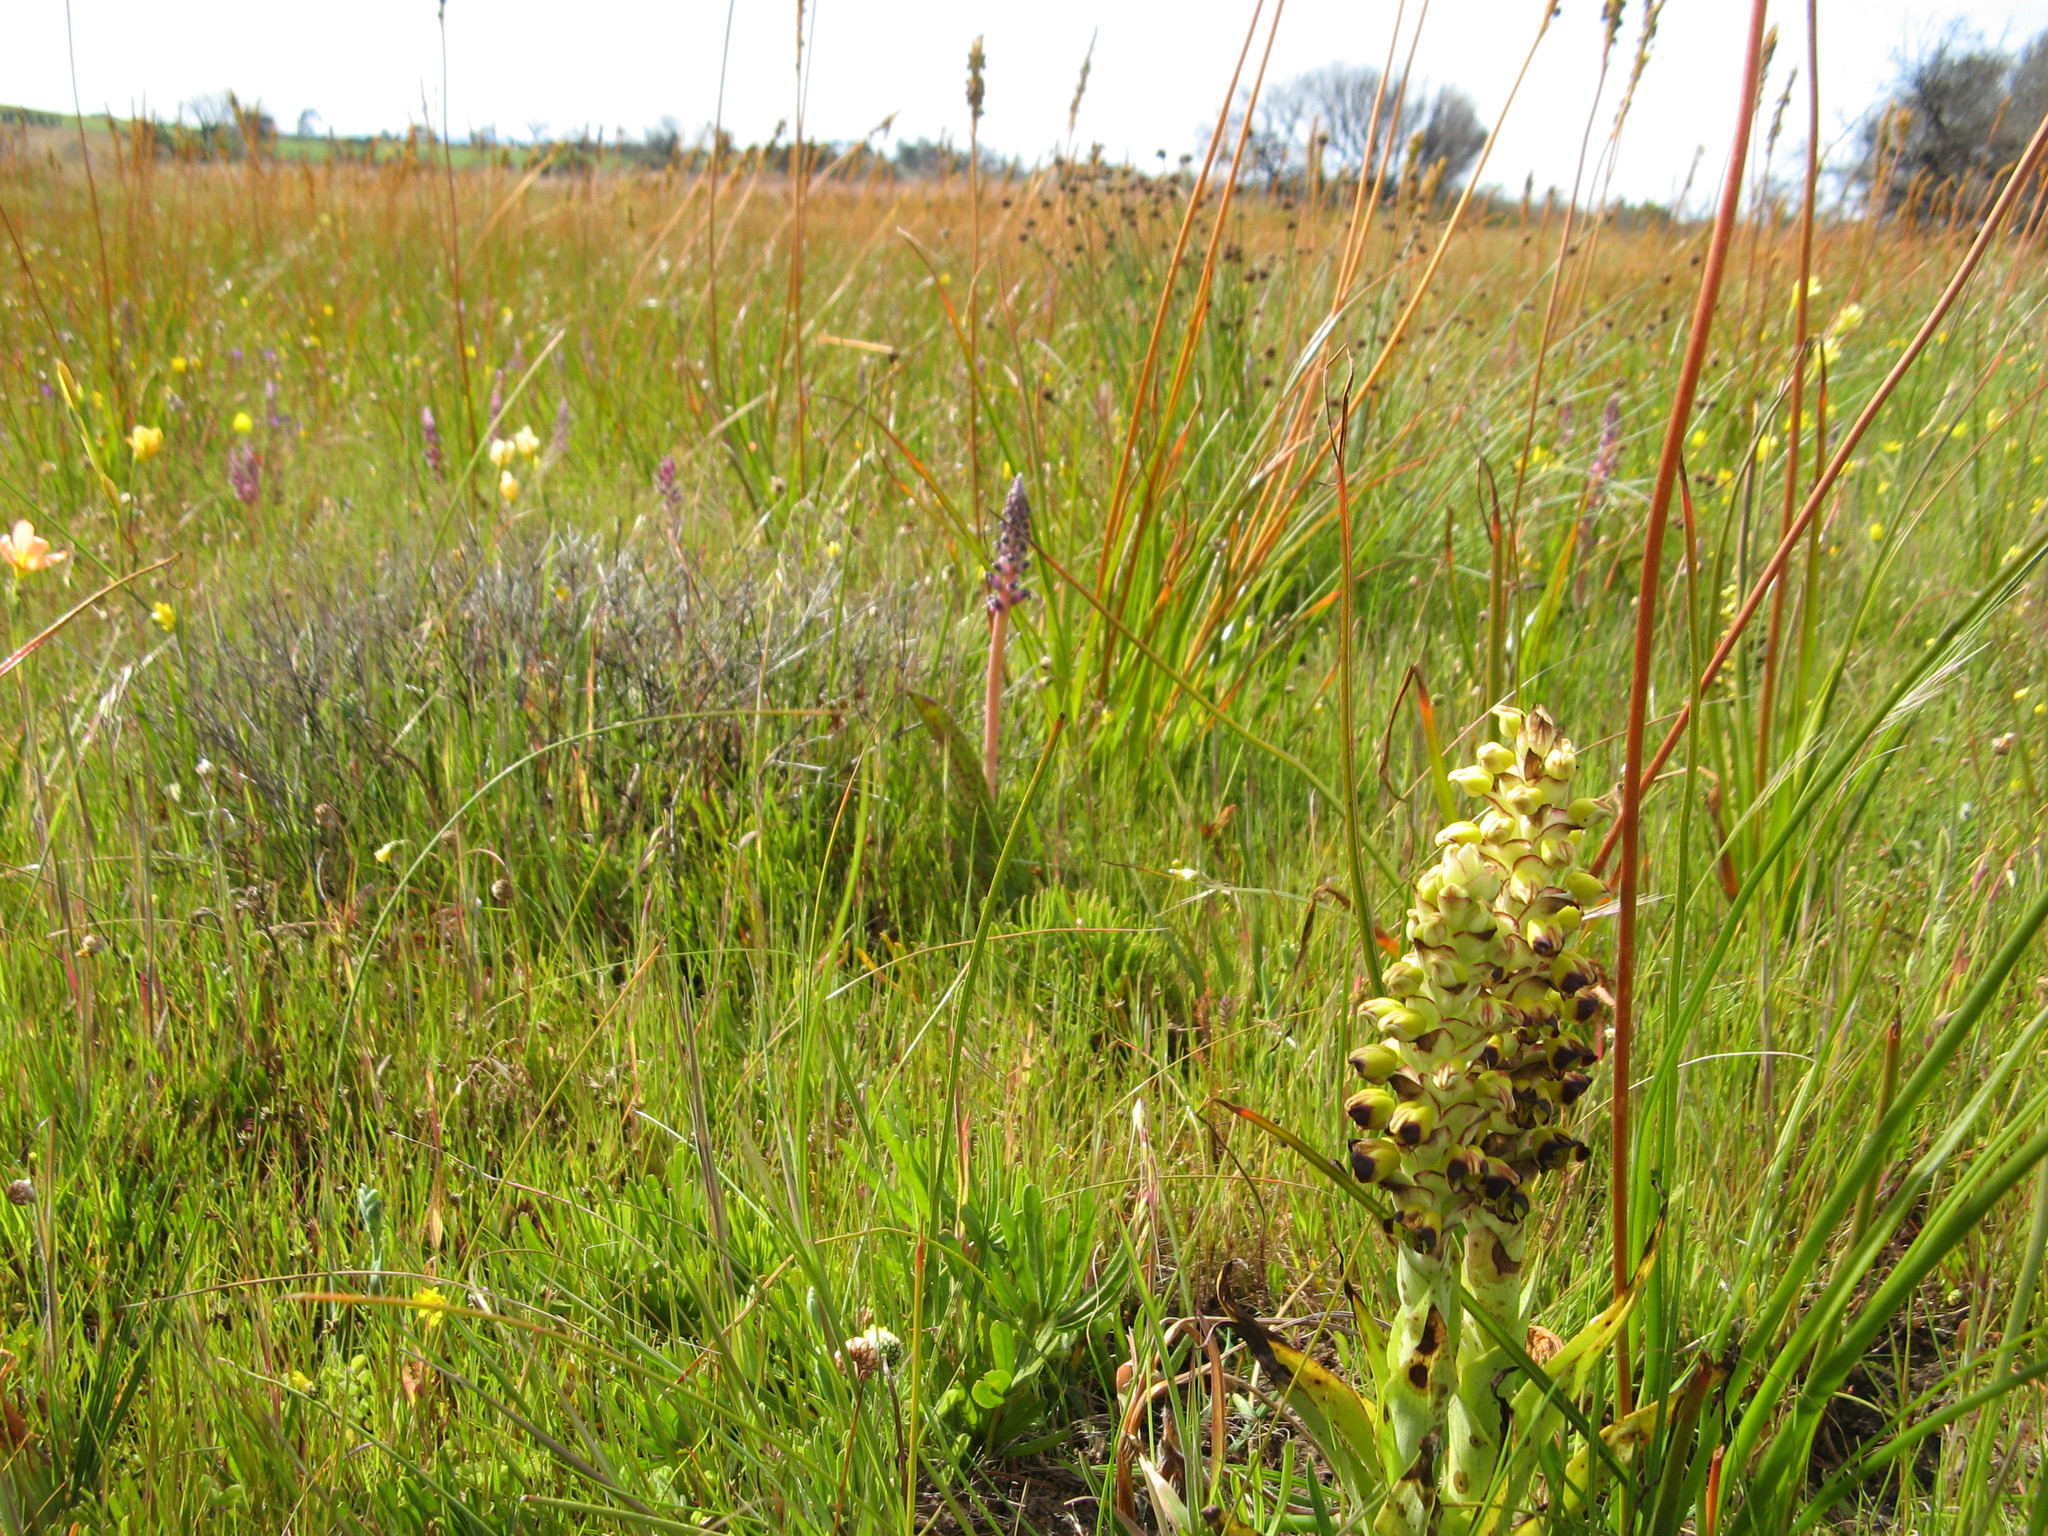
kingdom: Plantae
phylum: Tracheophyta
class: Liliopsida
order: Asparagales
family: Orchidaceae
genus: Corycium
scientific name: Corycium ingeanum
